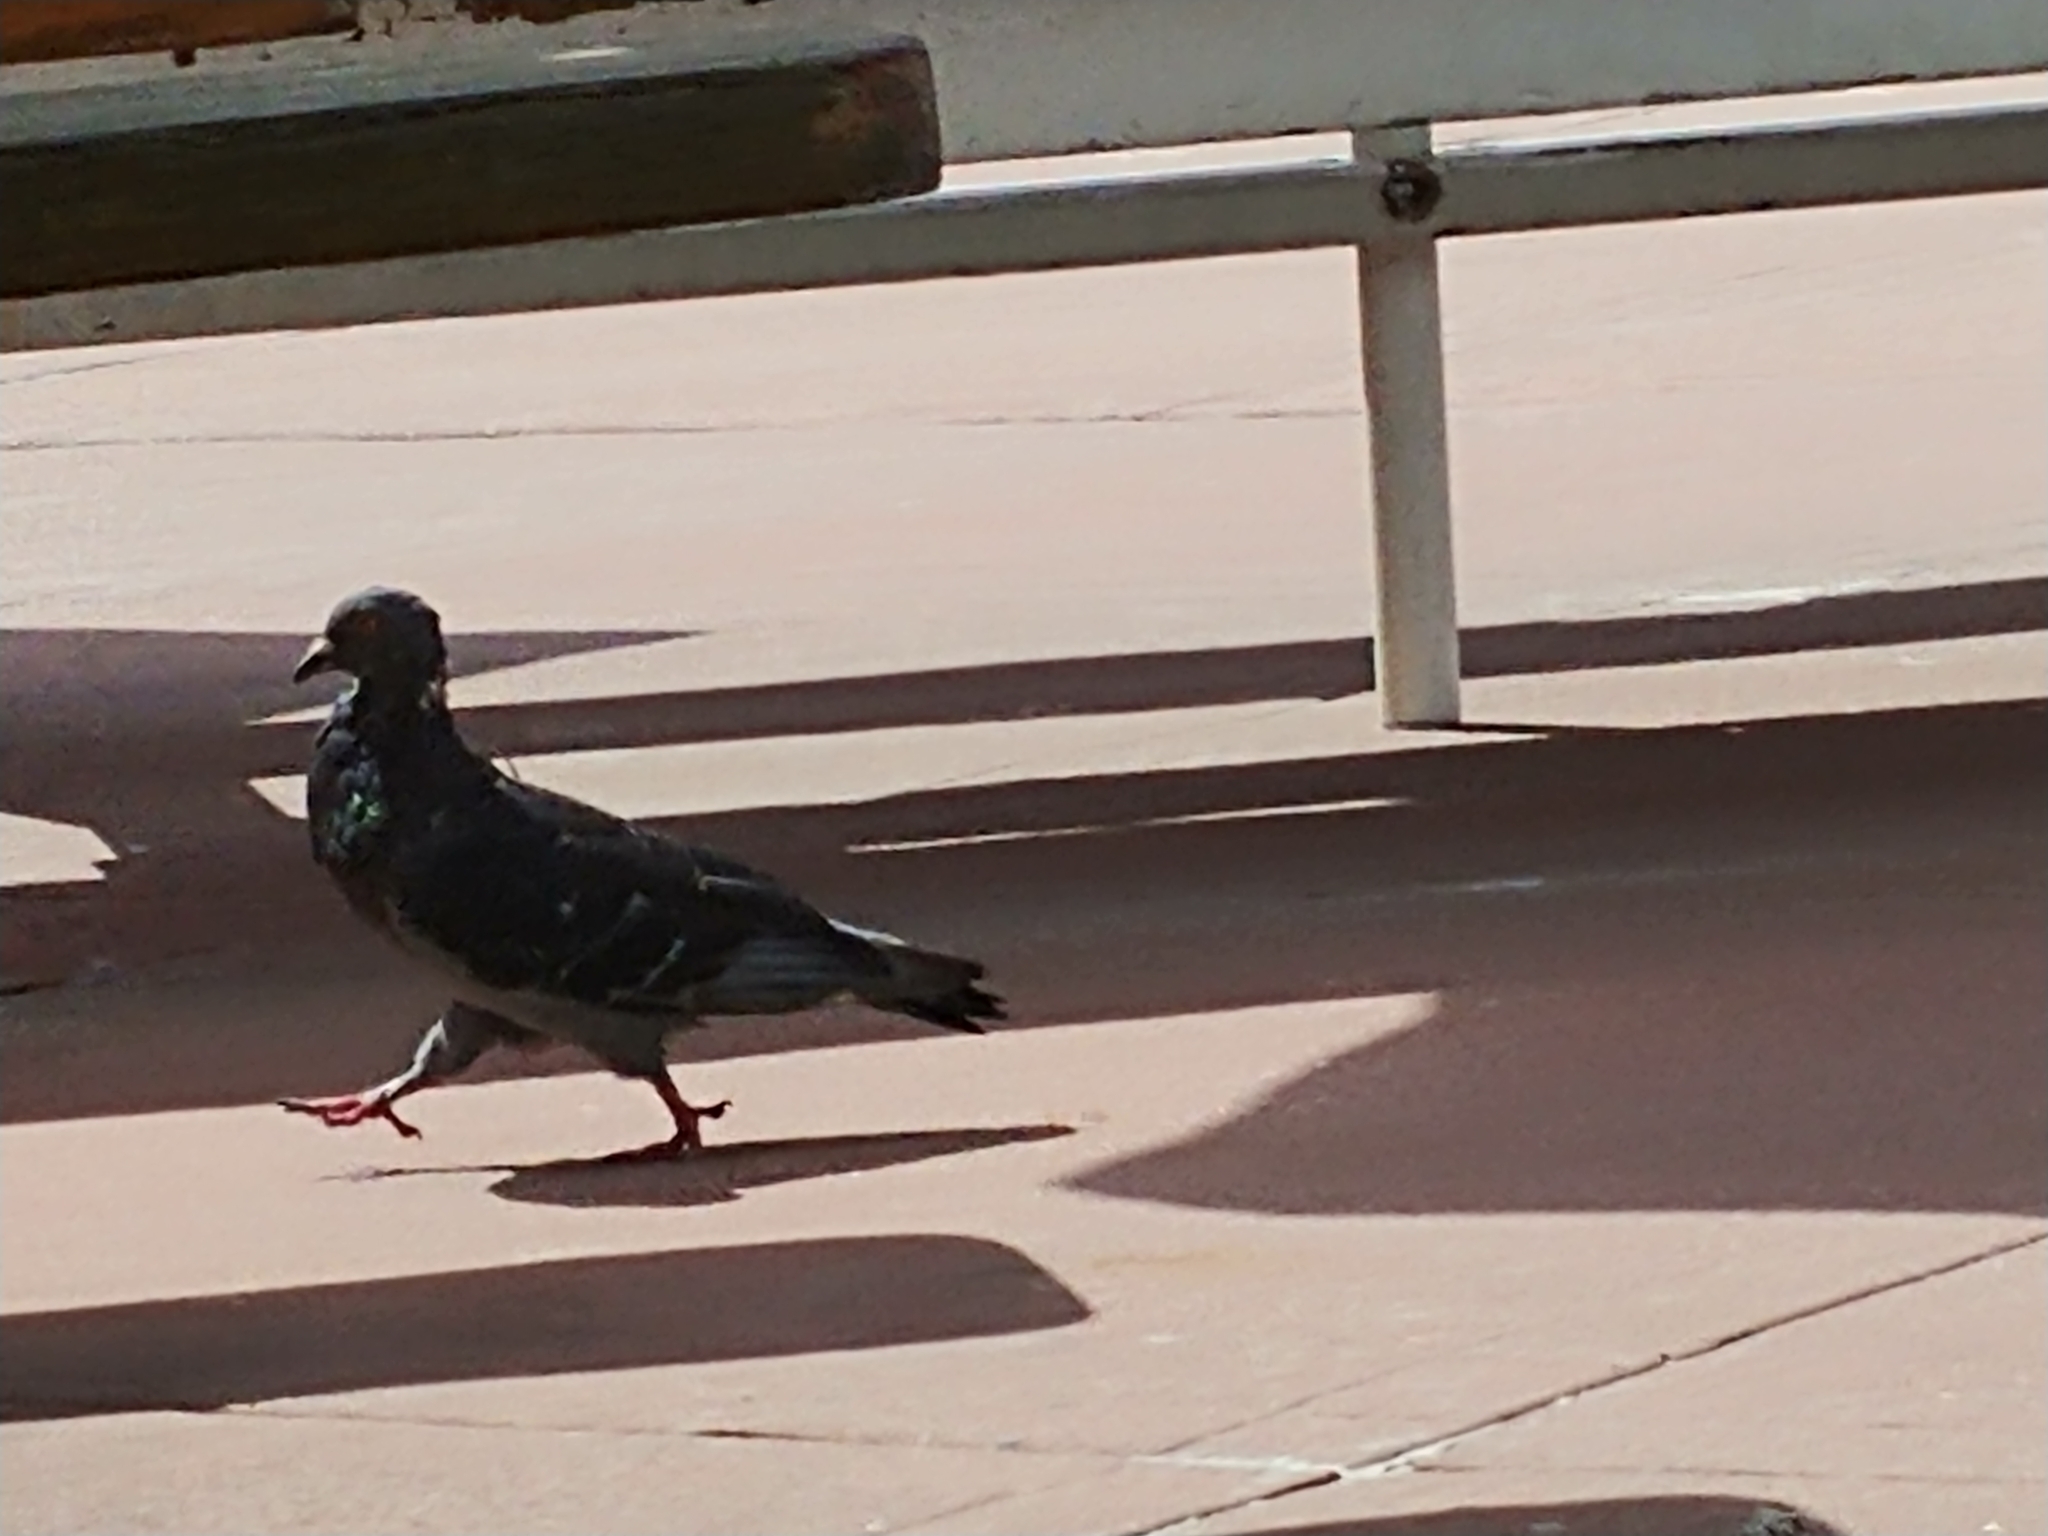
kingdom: Animalia
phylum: Chordata
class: Aves
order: Columbiformes
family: Columbidae
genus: Columba
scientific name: Columba livia
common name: Rock pigeon
